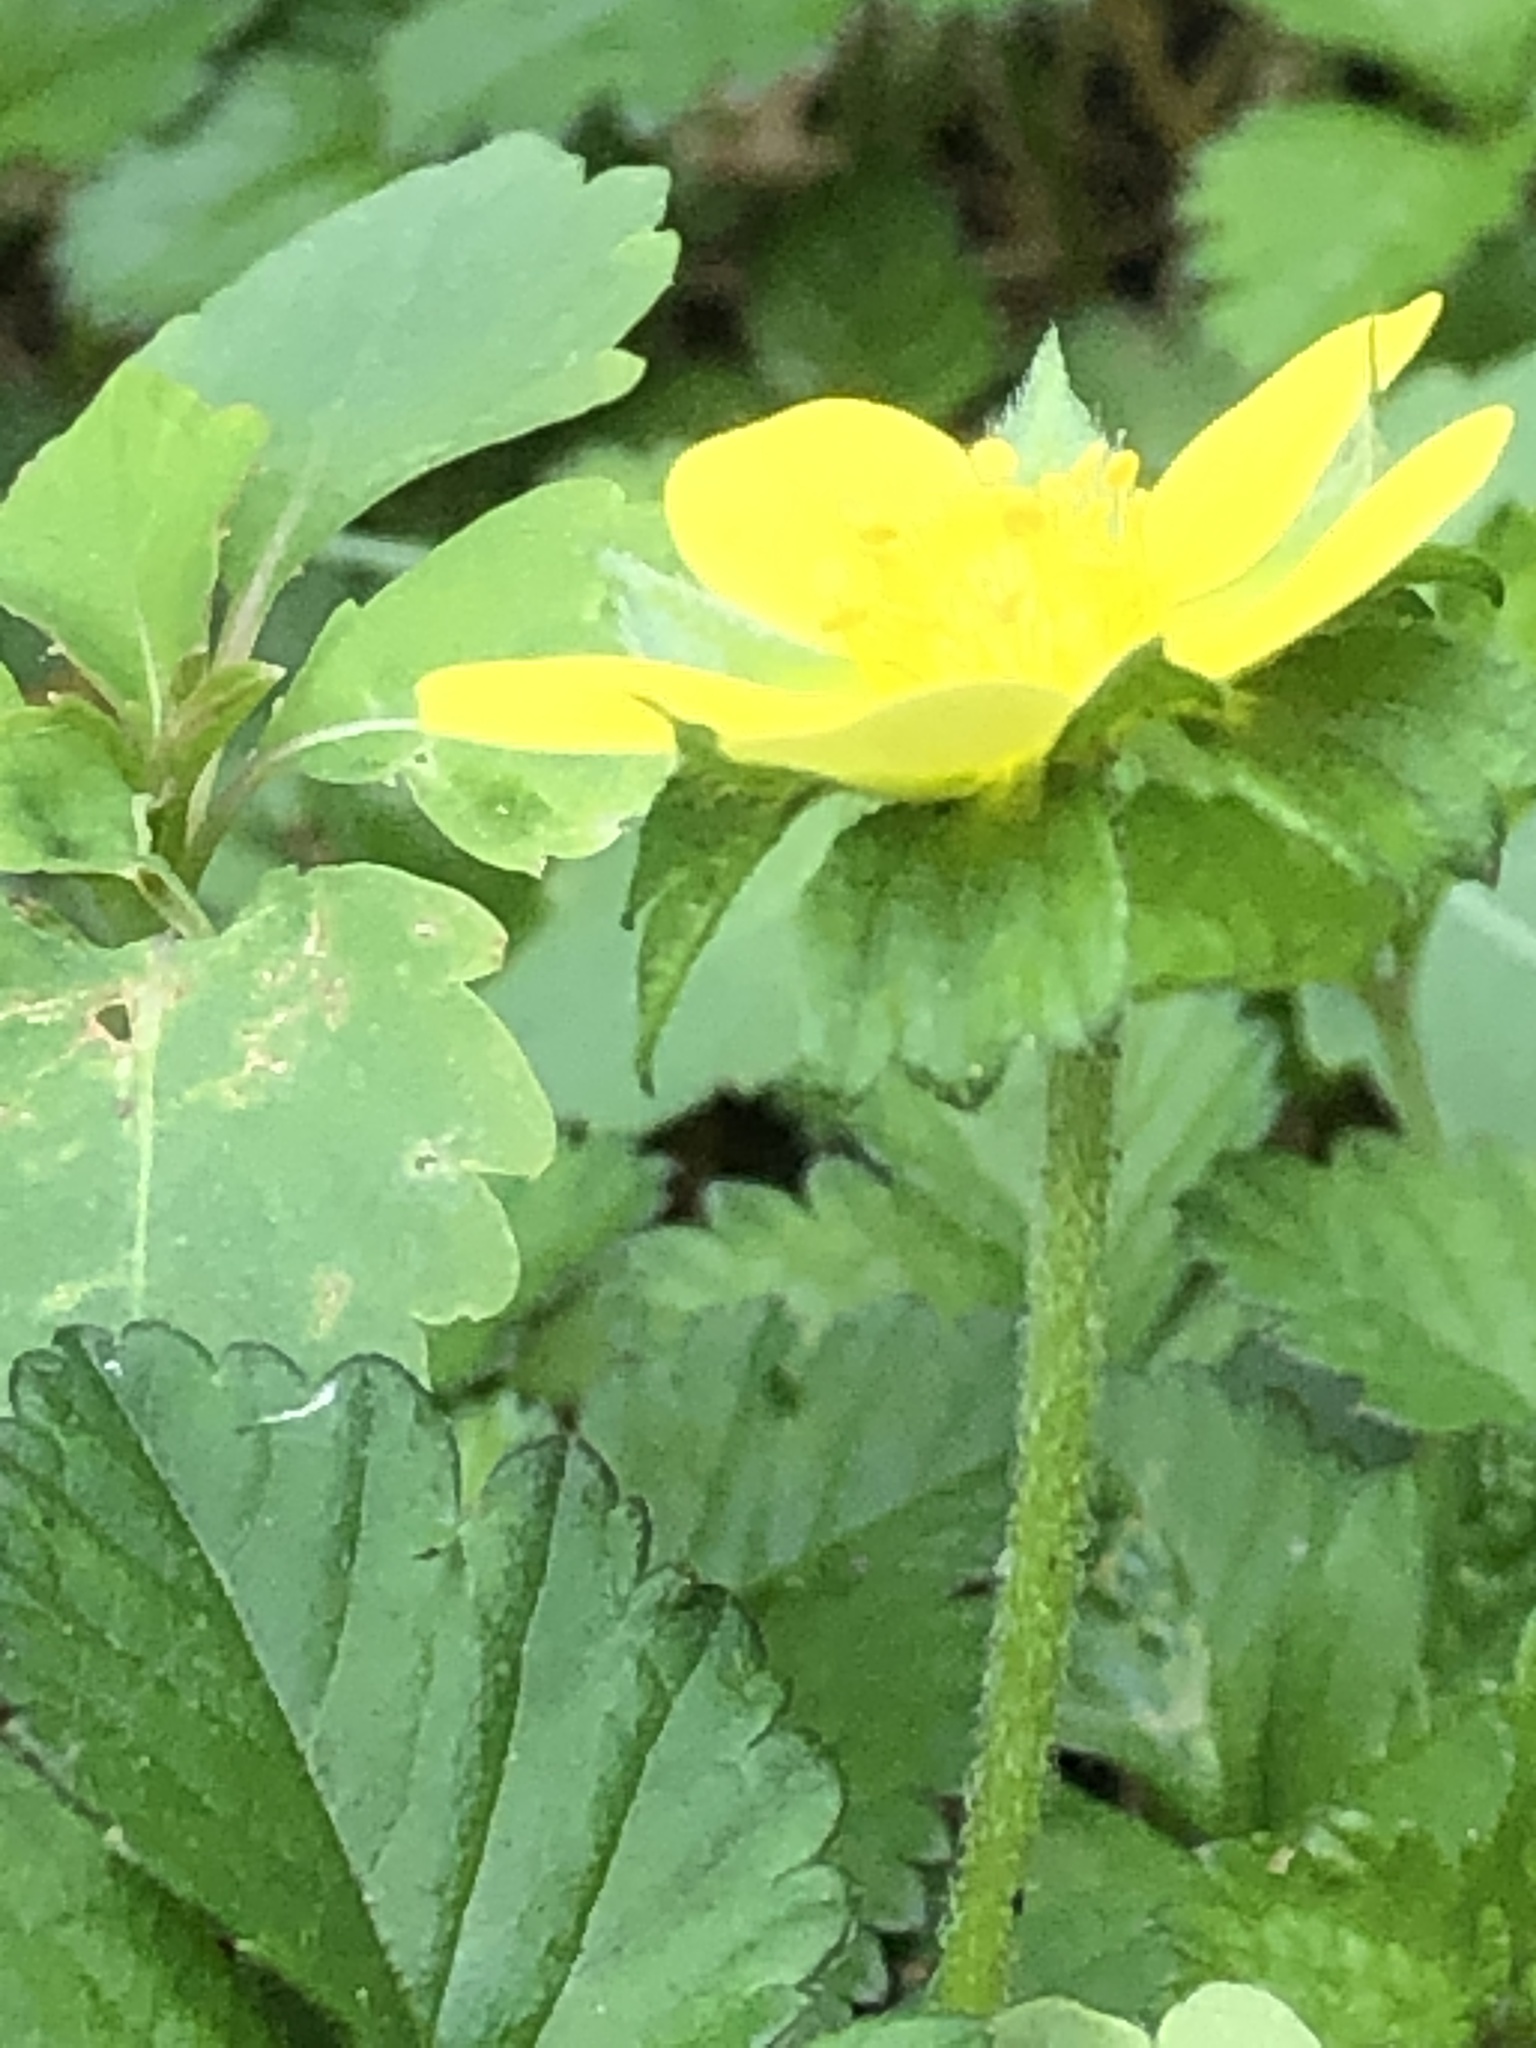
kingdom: Plantae
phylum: Tracheophyta
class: Magnoliopsida
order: Rosales
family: Rosaceae
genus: Potentilla
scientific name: Potentilla indica
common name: Yellow-flowered strawberry
